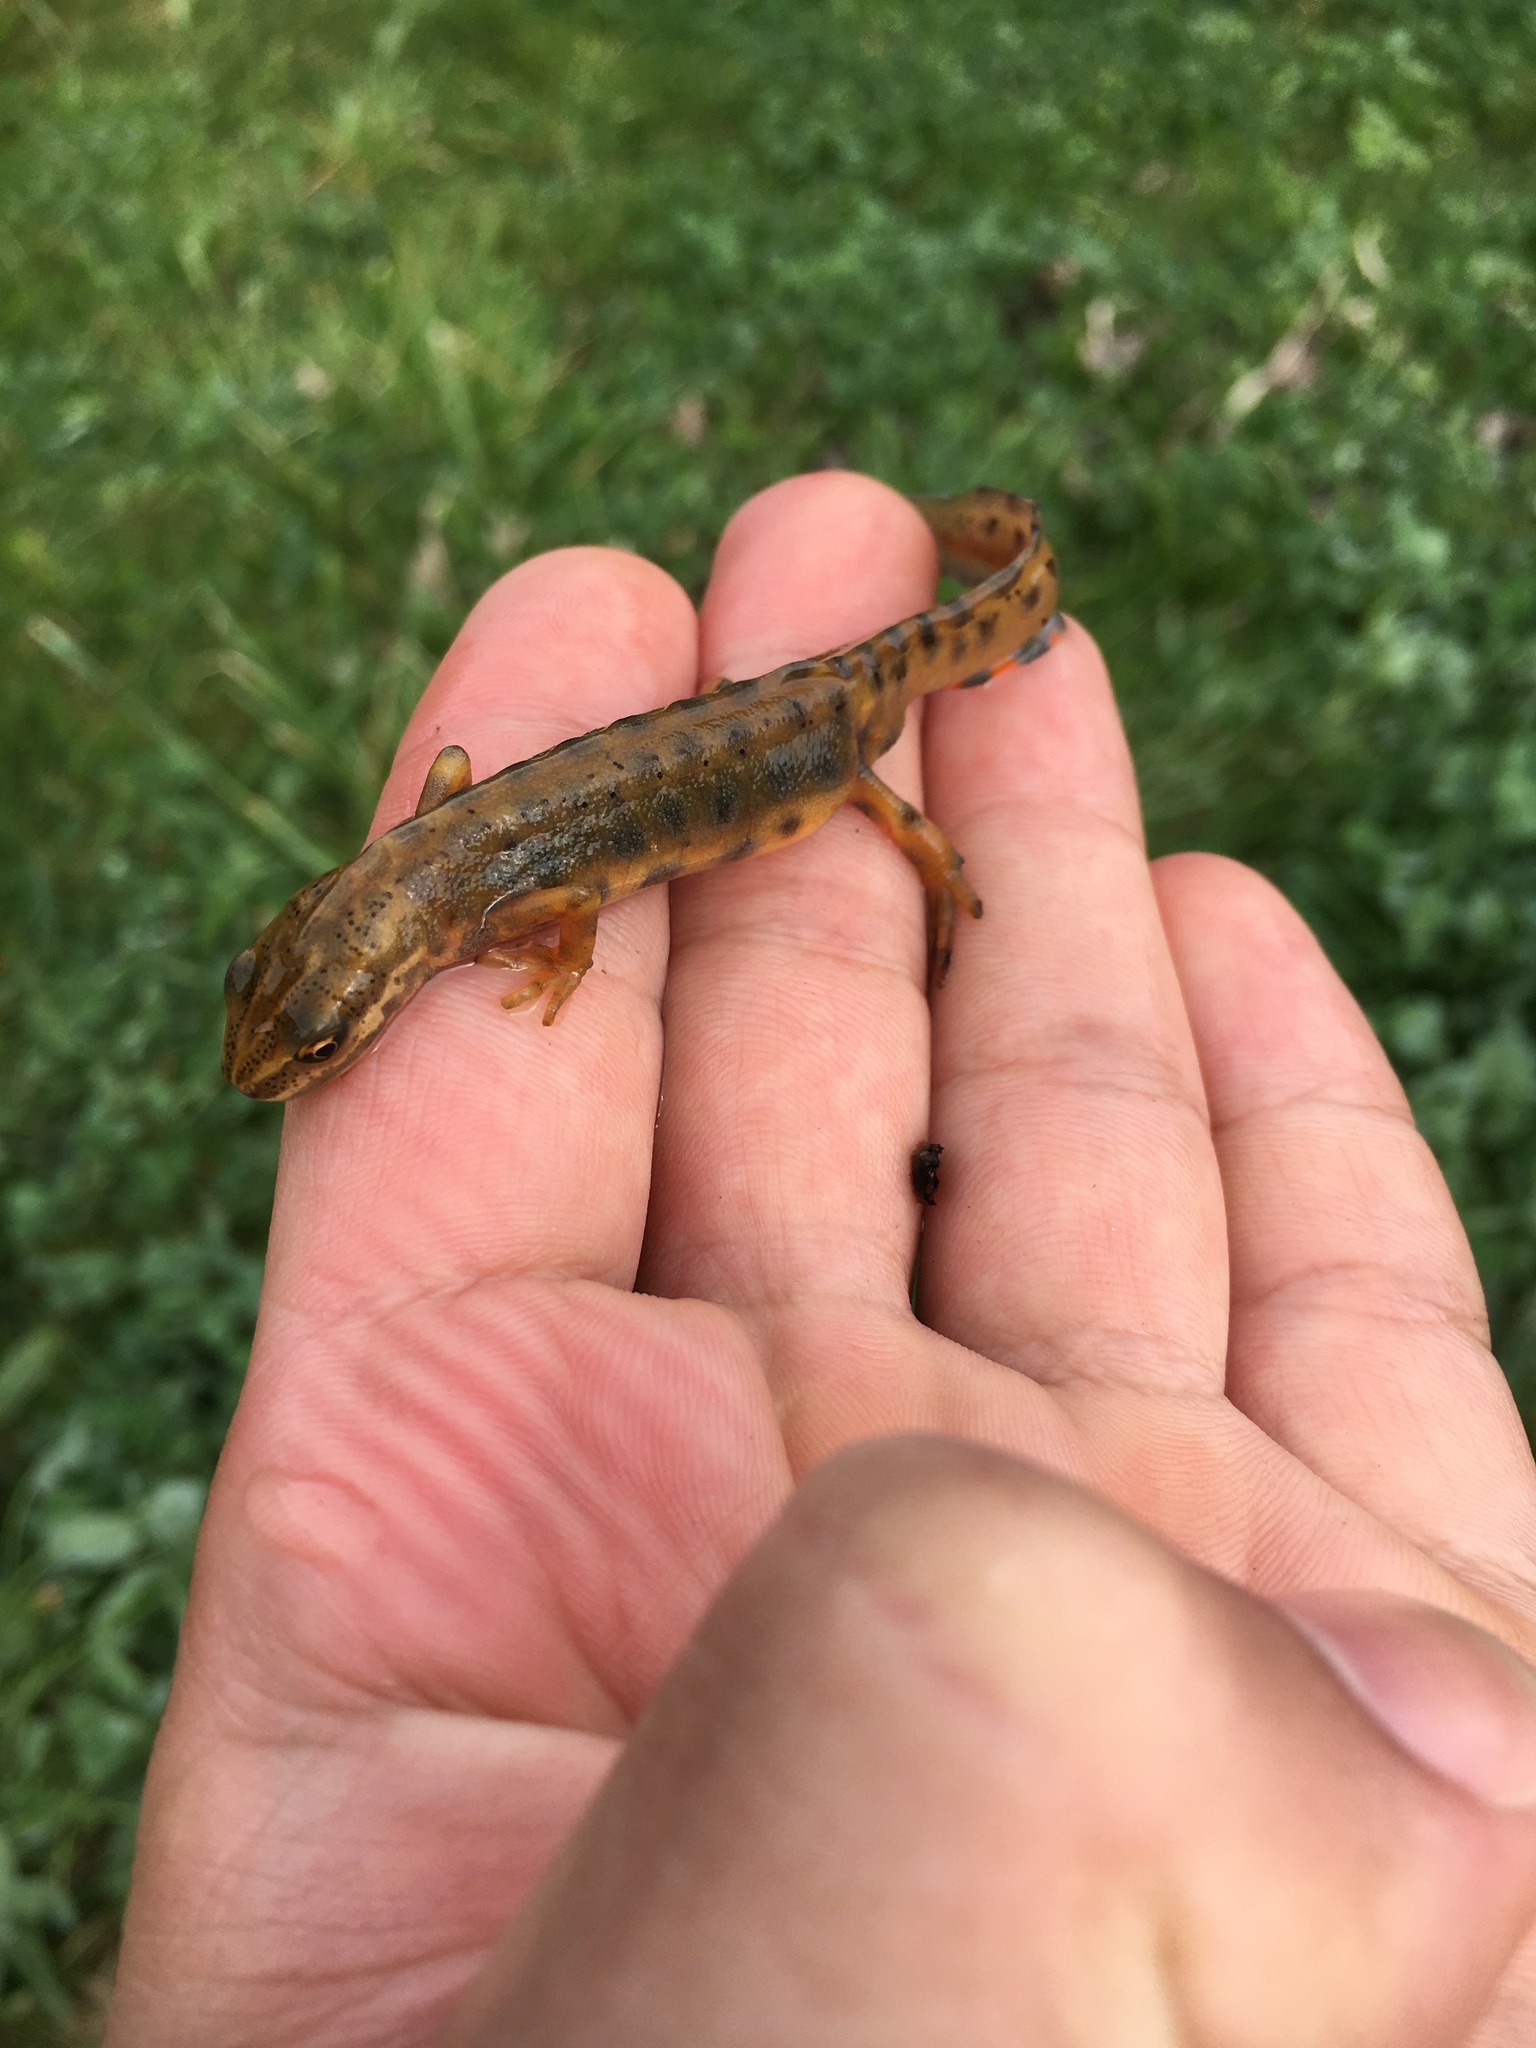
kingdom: Animalia
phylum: Chordata
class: Amphibia
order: Caudata
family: Salamandridae
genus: Lissotriton
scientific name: Lissotriton vulgaris
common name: Smooth newt
